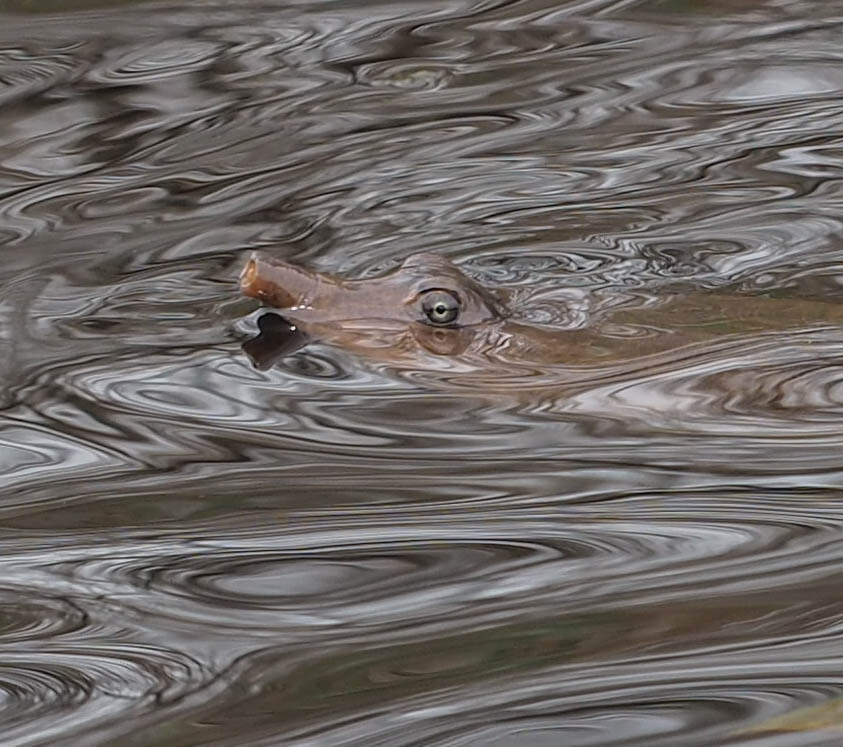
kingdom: Animalia
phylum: Chordata
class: Testudines
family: Trionychidae
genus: Apalone
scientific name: Apalone ferox
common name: Florida softshell turtle
